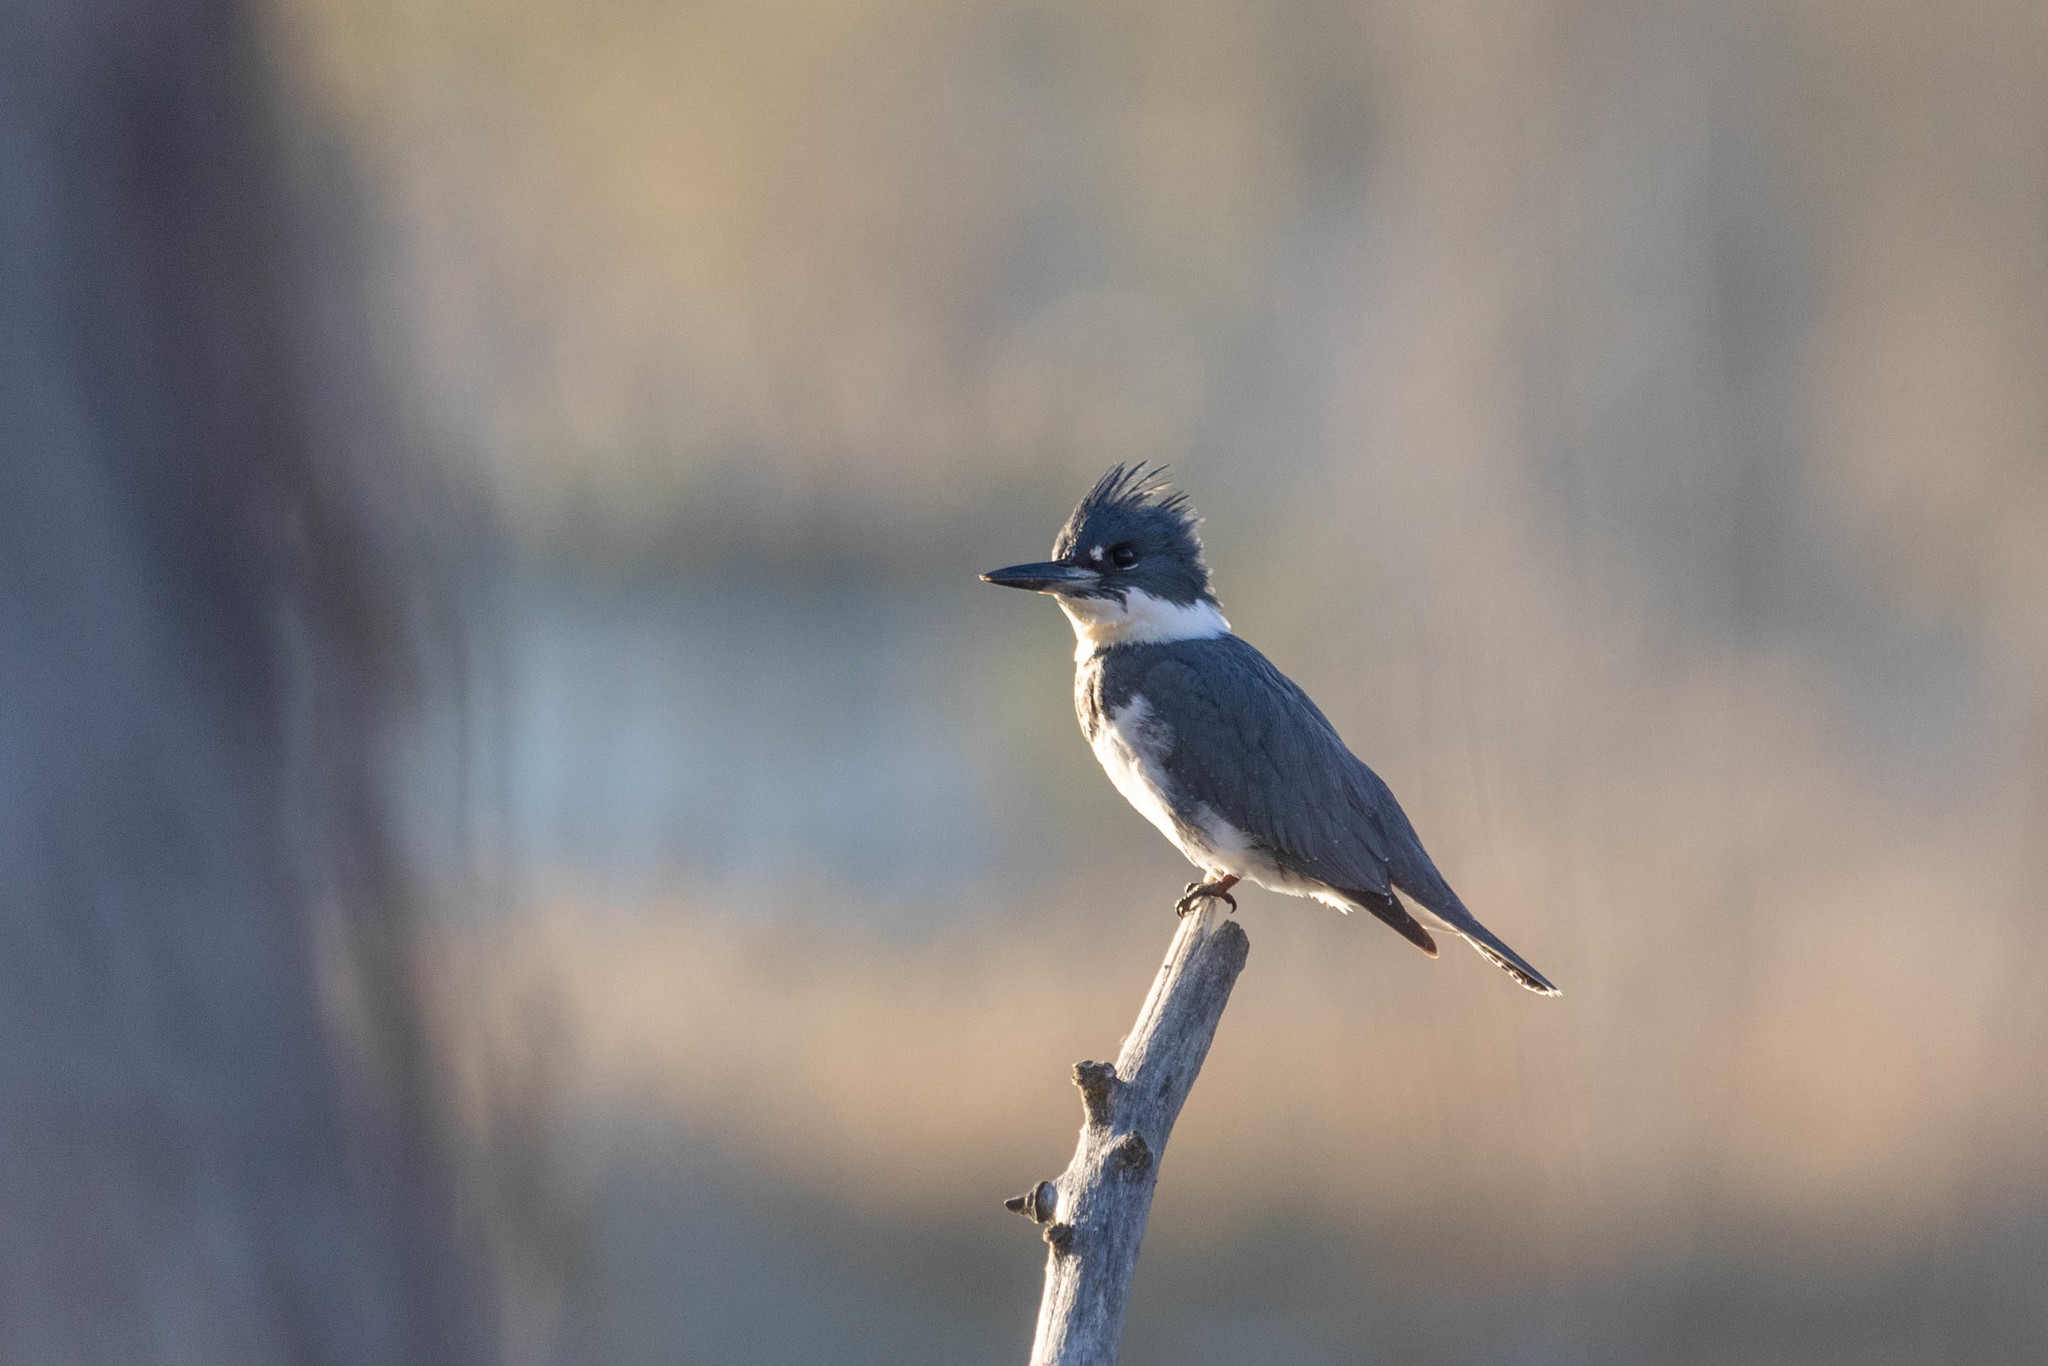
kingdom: Animalia
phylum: Chordata
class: Aves
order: Coraciiformes
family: Alcedinidae
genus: Megaceryle
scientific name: Megaceryle alcyon
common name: Belted kingfisher
